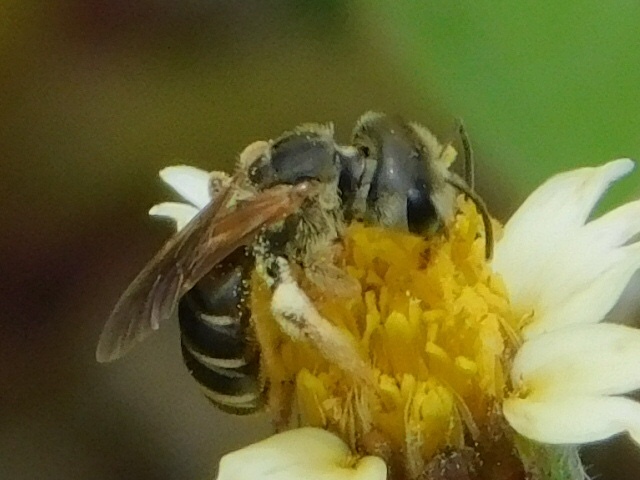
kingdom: Animalia
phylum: Arthropoda
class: Insecta
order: Hymenoptera
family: Halictidae
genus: Halictus
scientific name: Halictus poeyi
